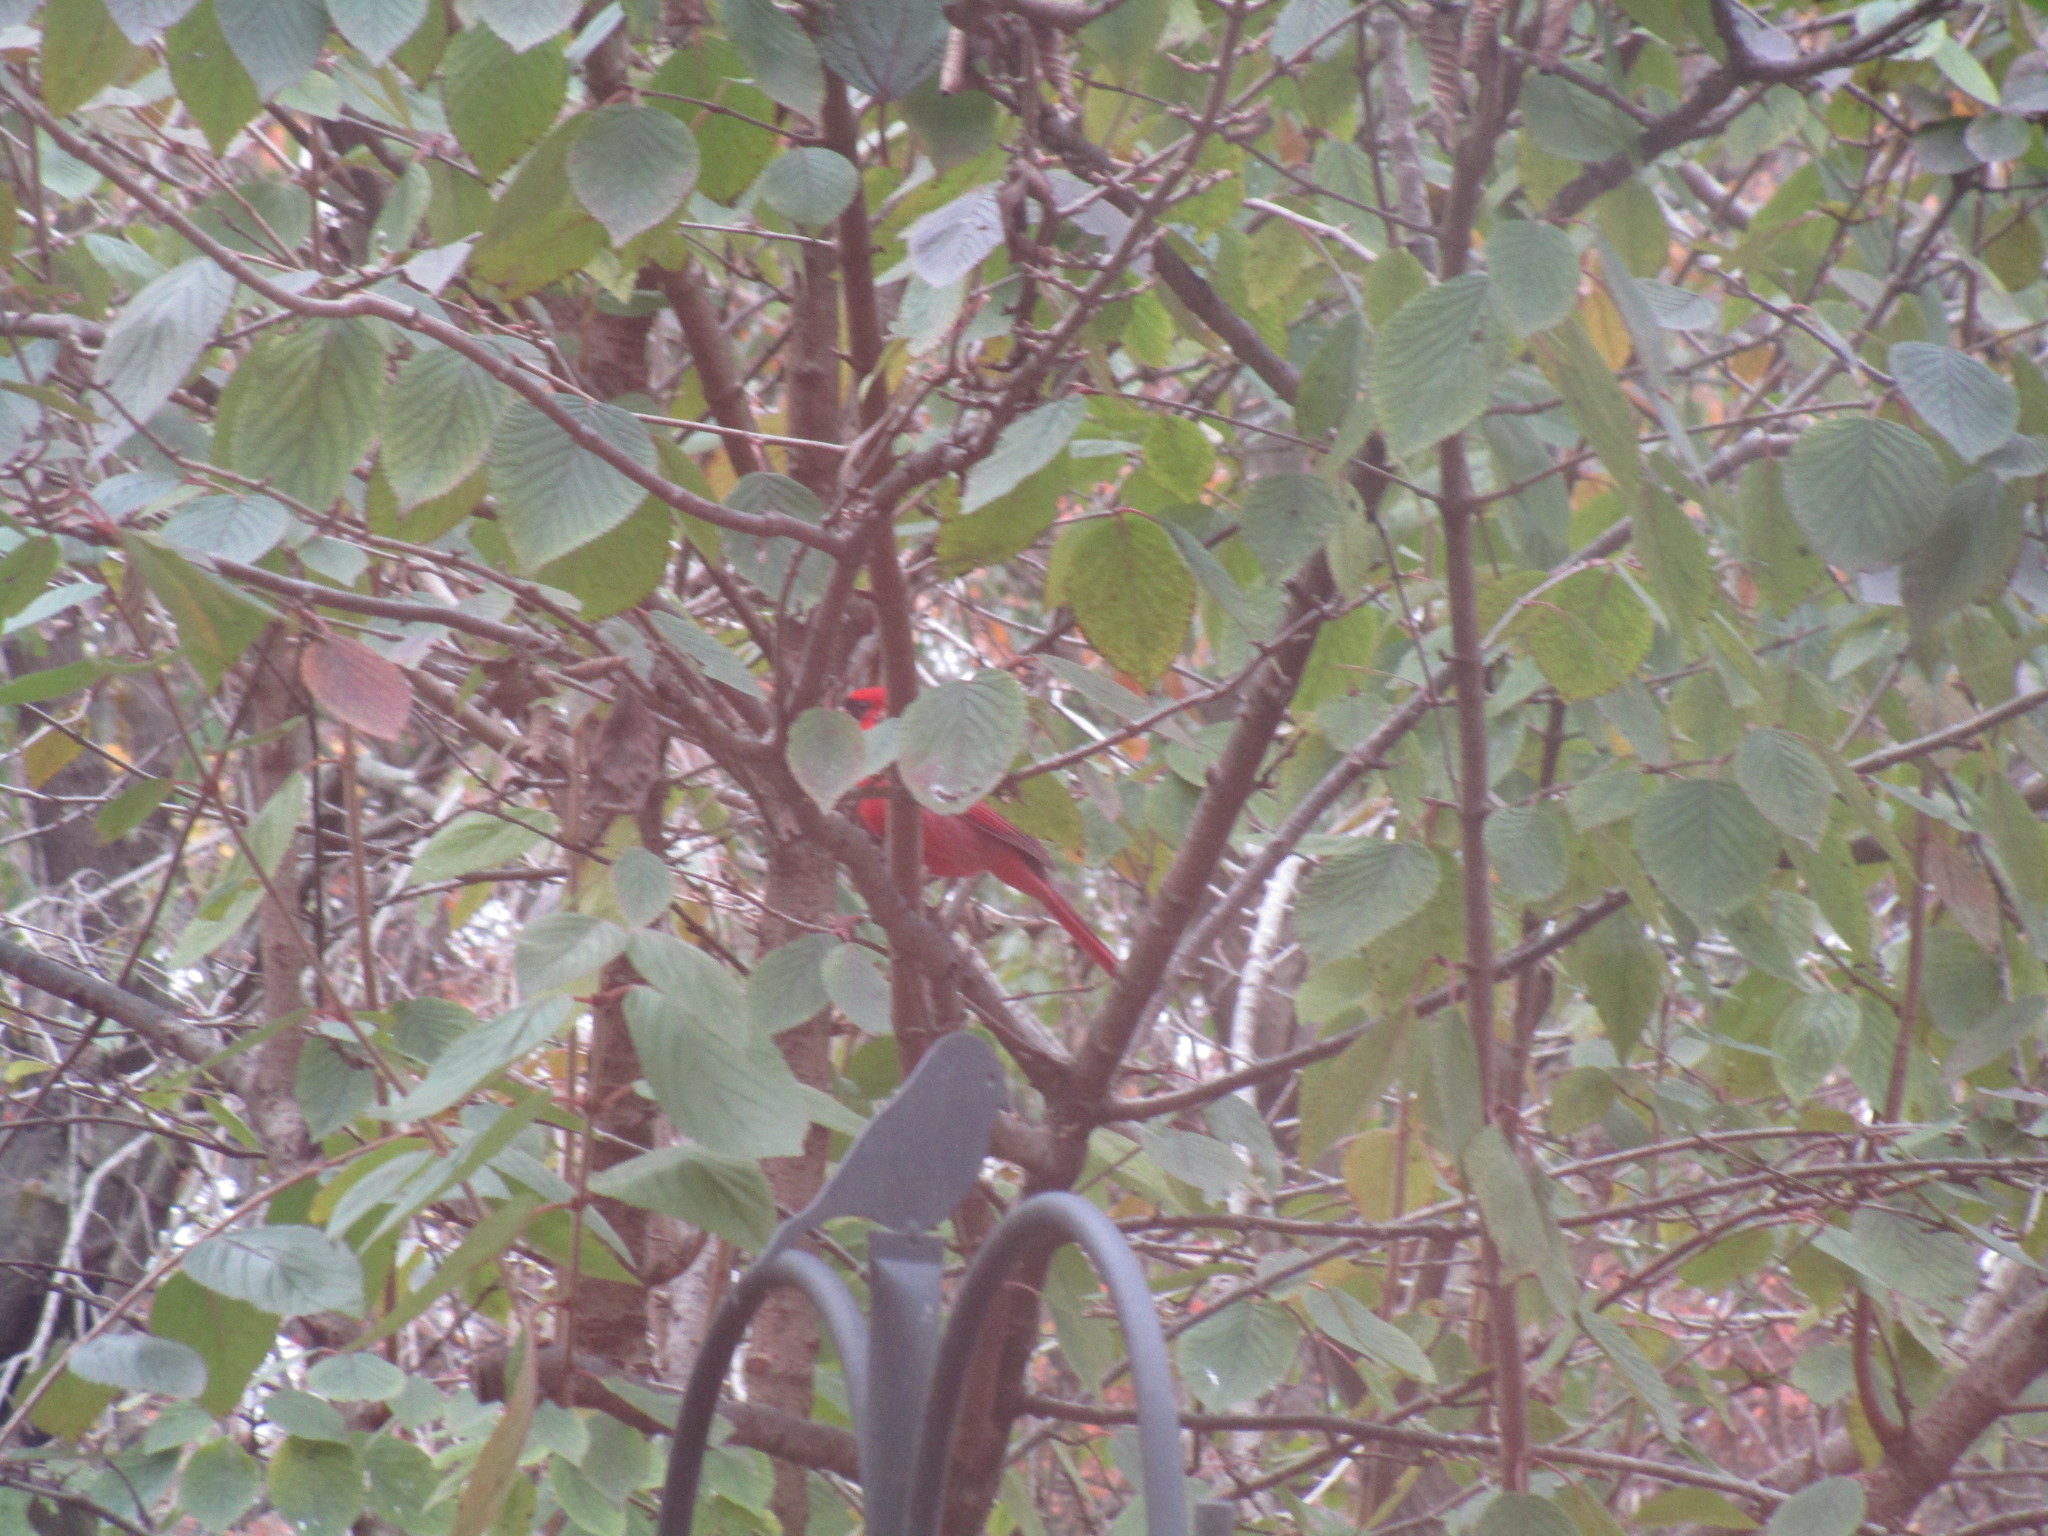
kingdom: Animalia
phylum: Chordata
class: Aves
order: Passeriformes
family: Cardinalidae
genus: Cardinalis
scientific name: Cardinalis cardinalis
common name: Northern cardinal
